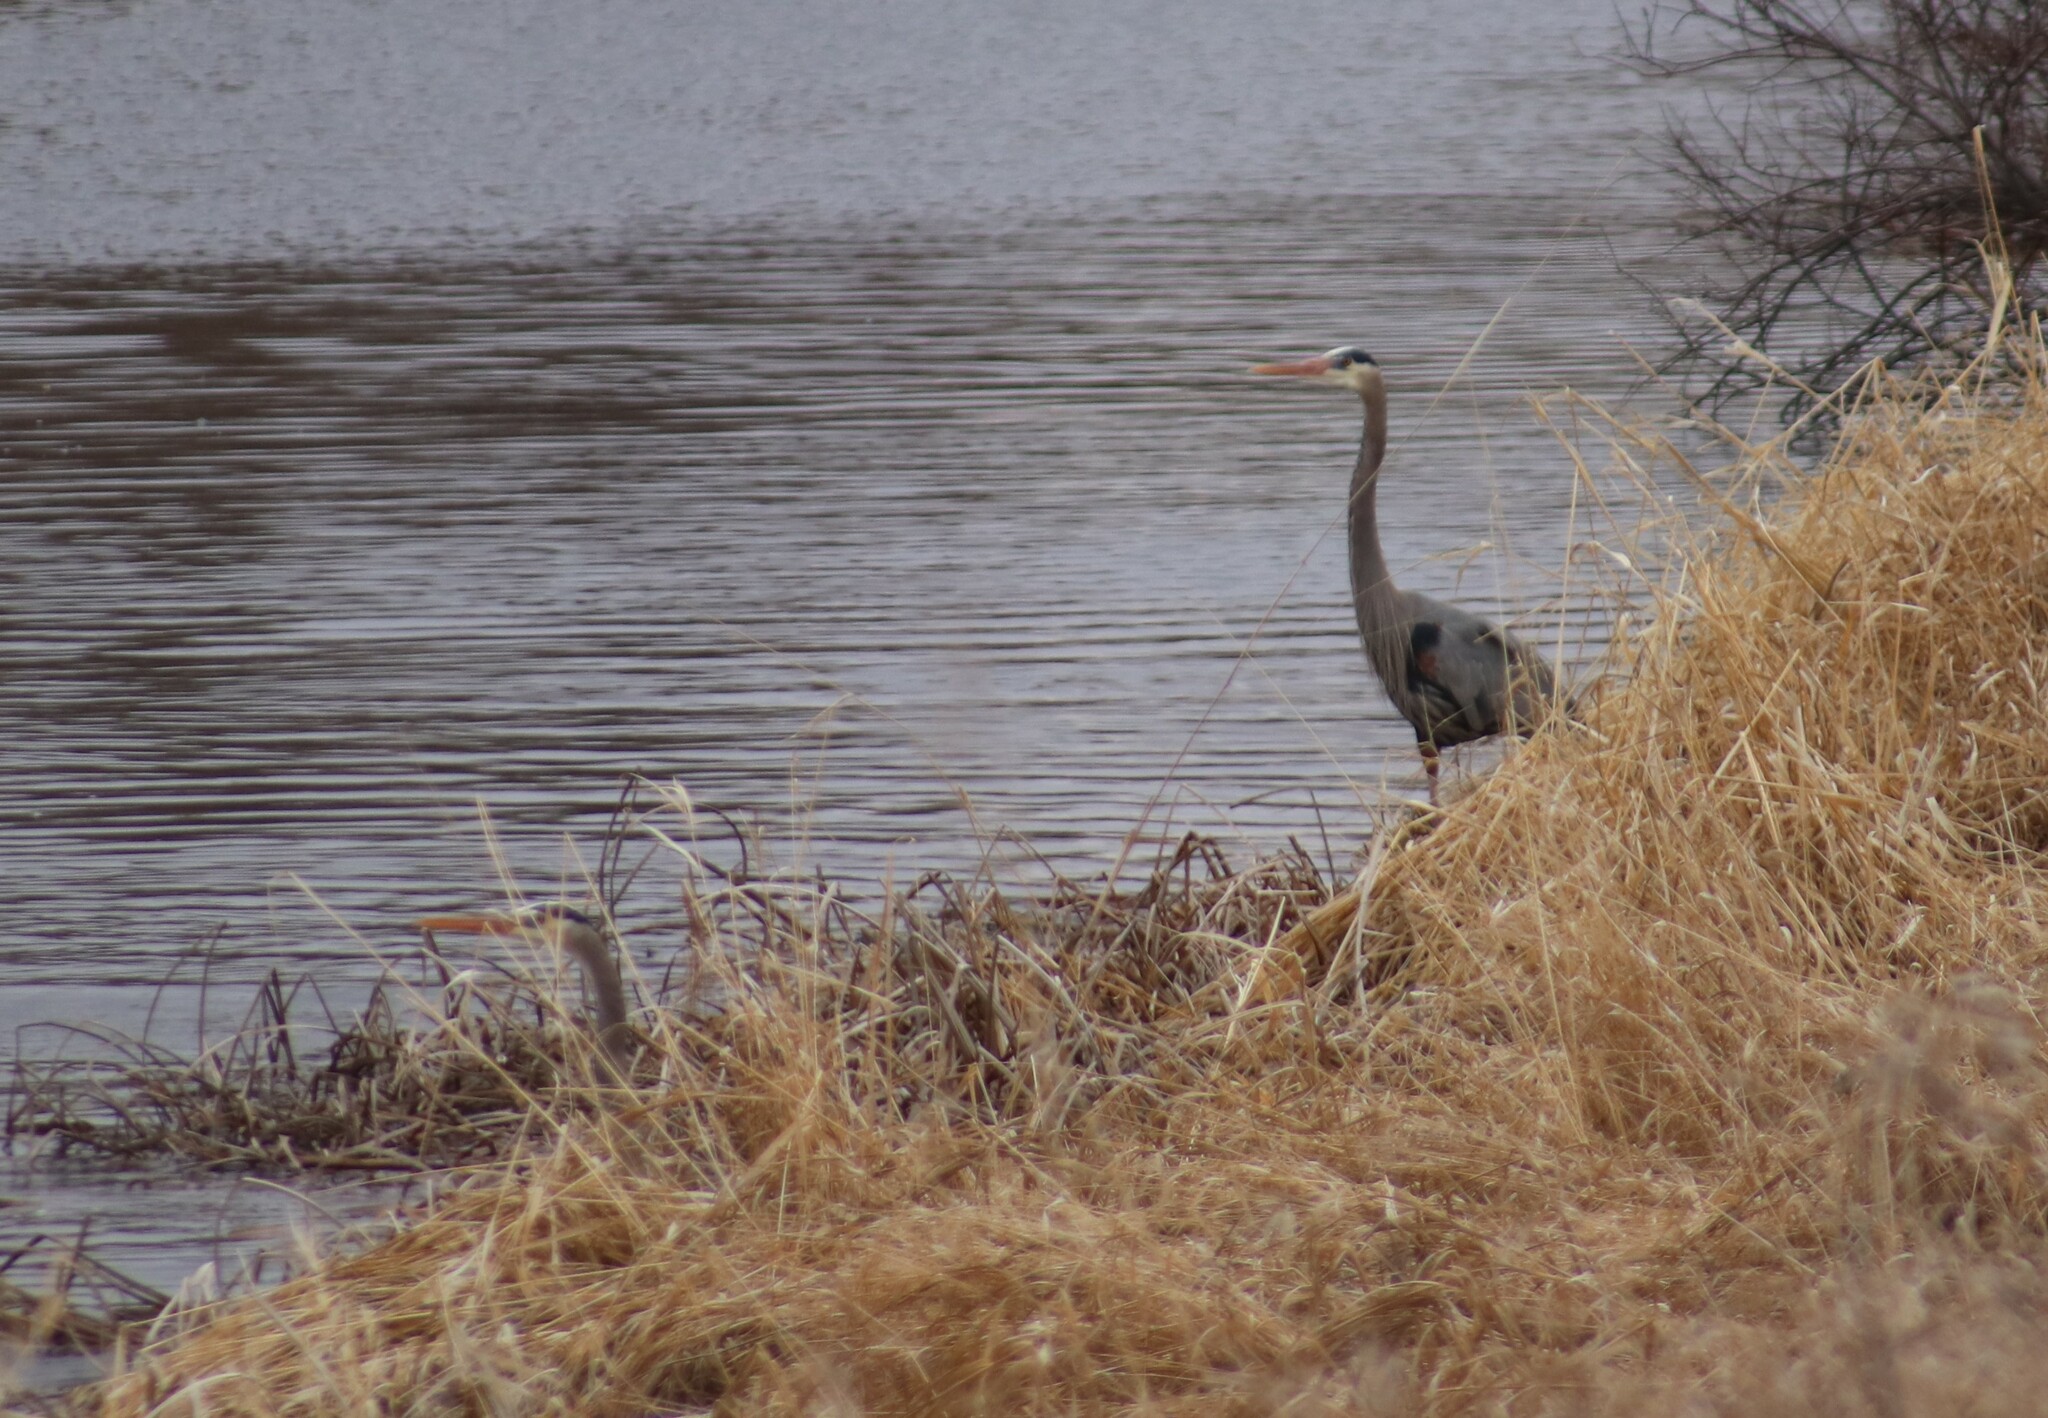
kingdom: Animalia
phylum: Chordata
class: Aves
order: Pelecaniformes
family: Ardeidae
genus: Ardea
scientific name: Ardea herodias
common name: Great blue heron
